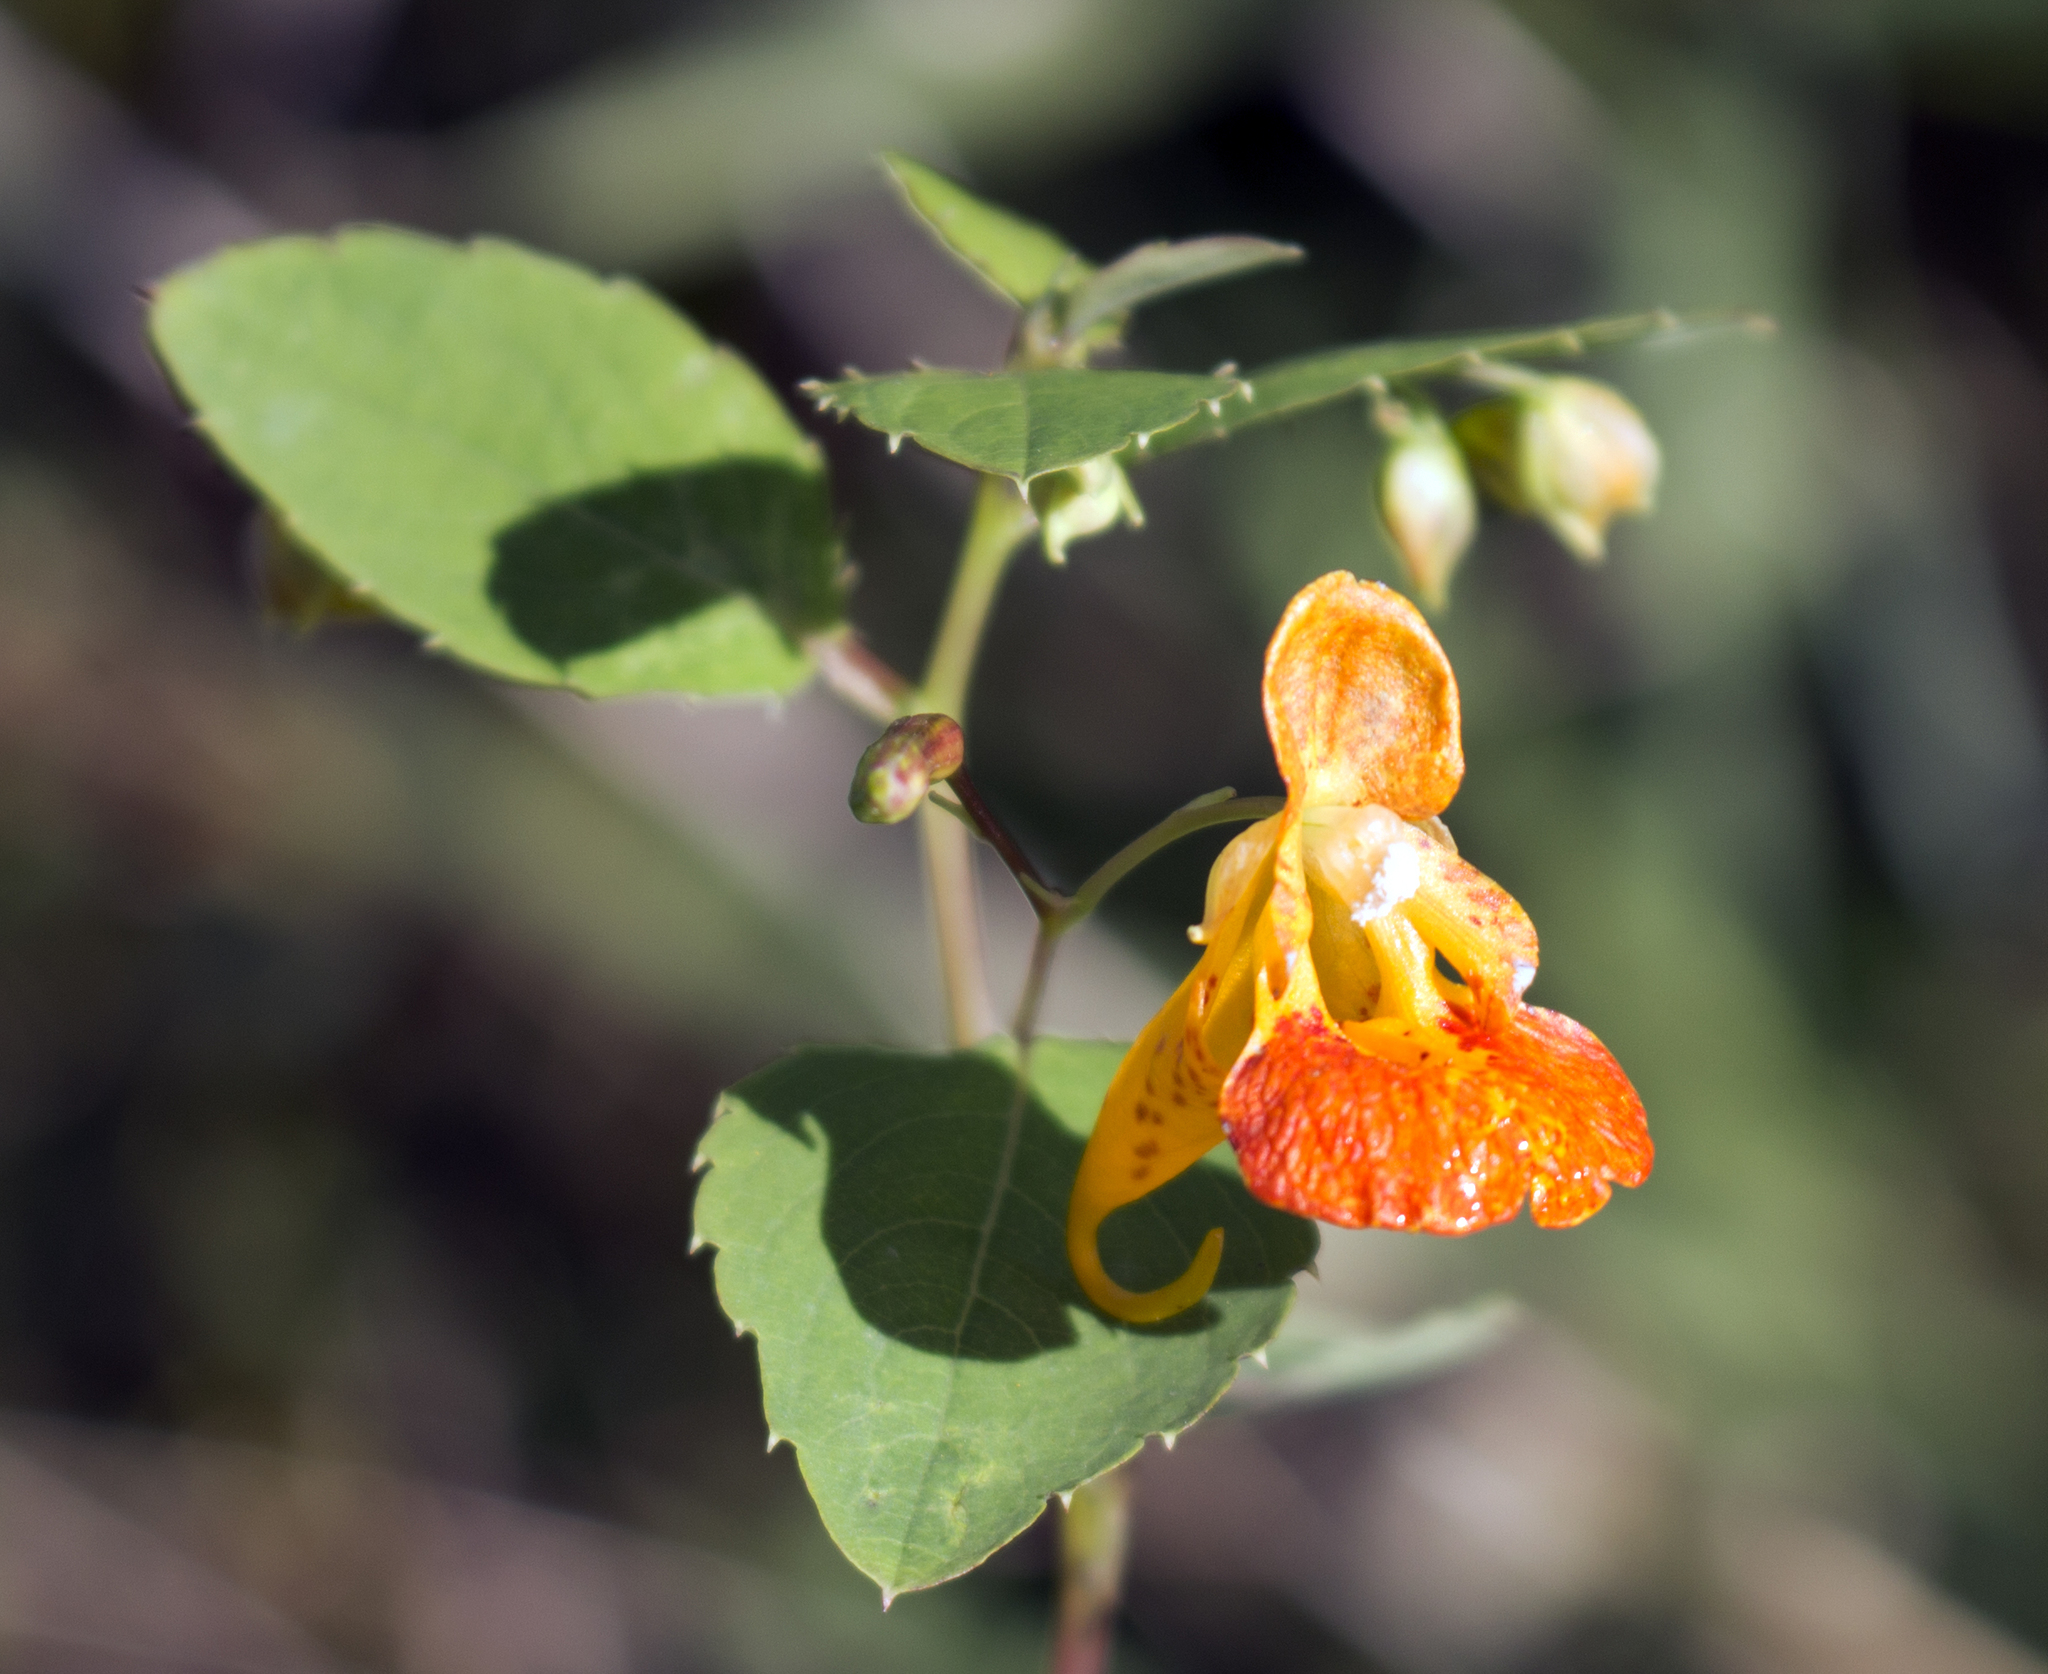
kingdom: Plantae
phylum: Tracheophyta
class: Magnoliopsida
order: Ericales
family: Balsaminaceae
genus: Impatiens
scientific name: Impatiens capensis
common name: Orange balsam
